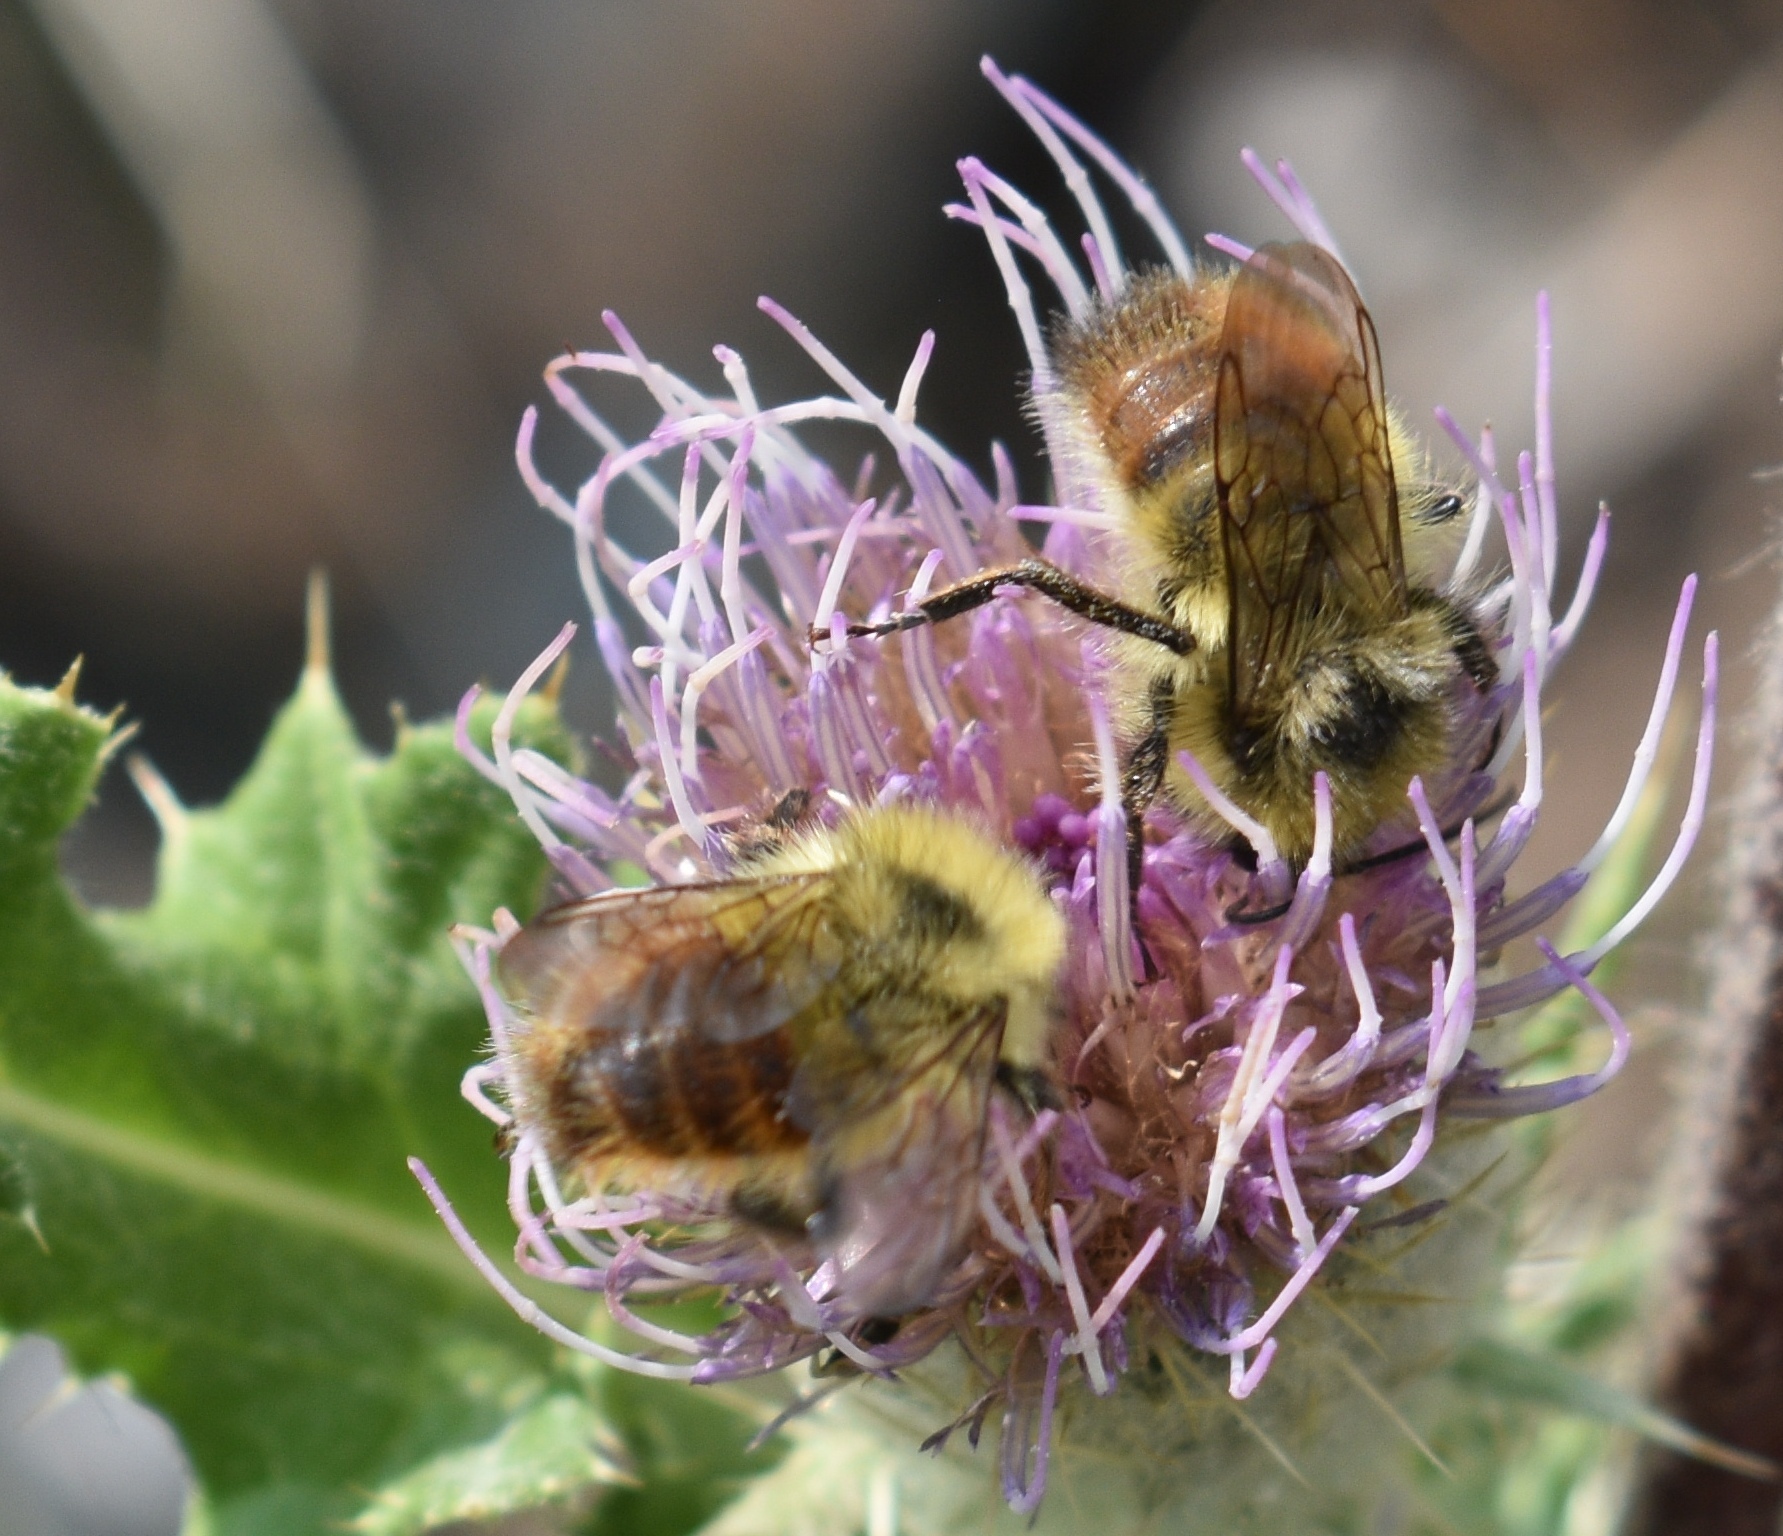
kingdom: Animalia
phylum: Arthropoda
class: Insecta
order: Hymenoptera
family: Apidae
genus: Pyrobombus
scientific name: Pyrobombus
